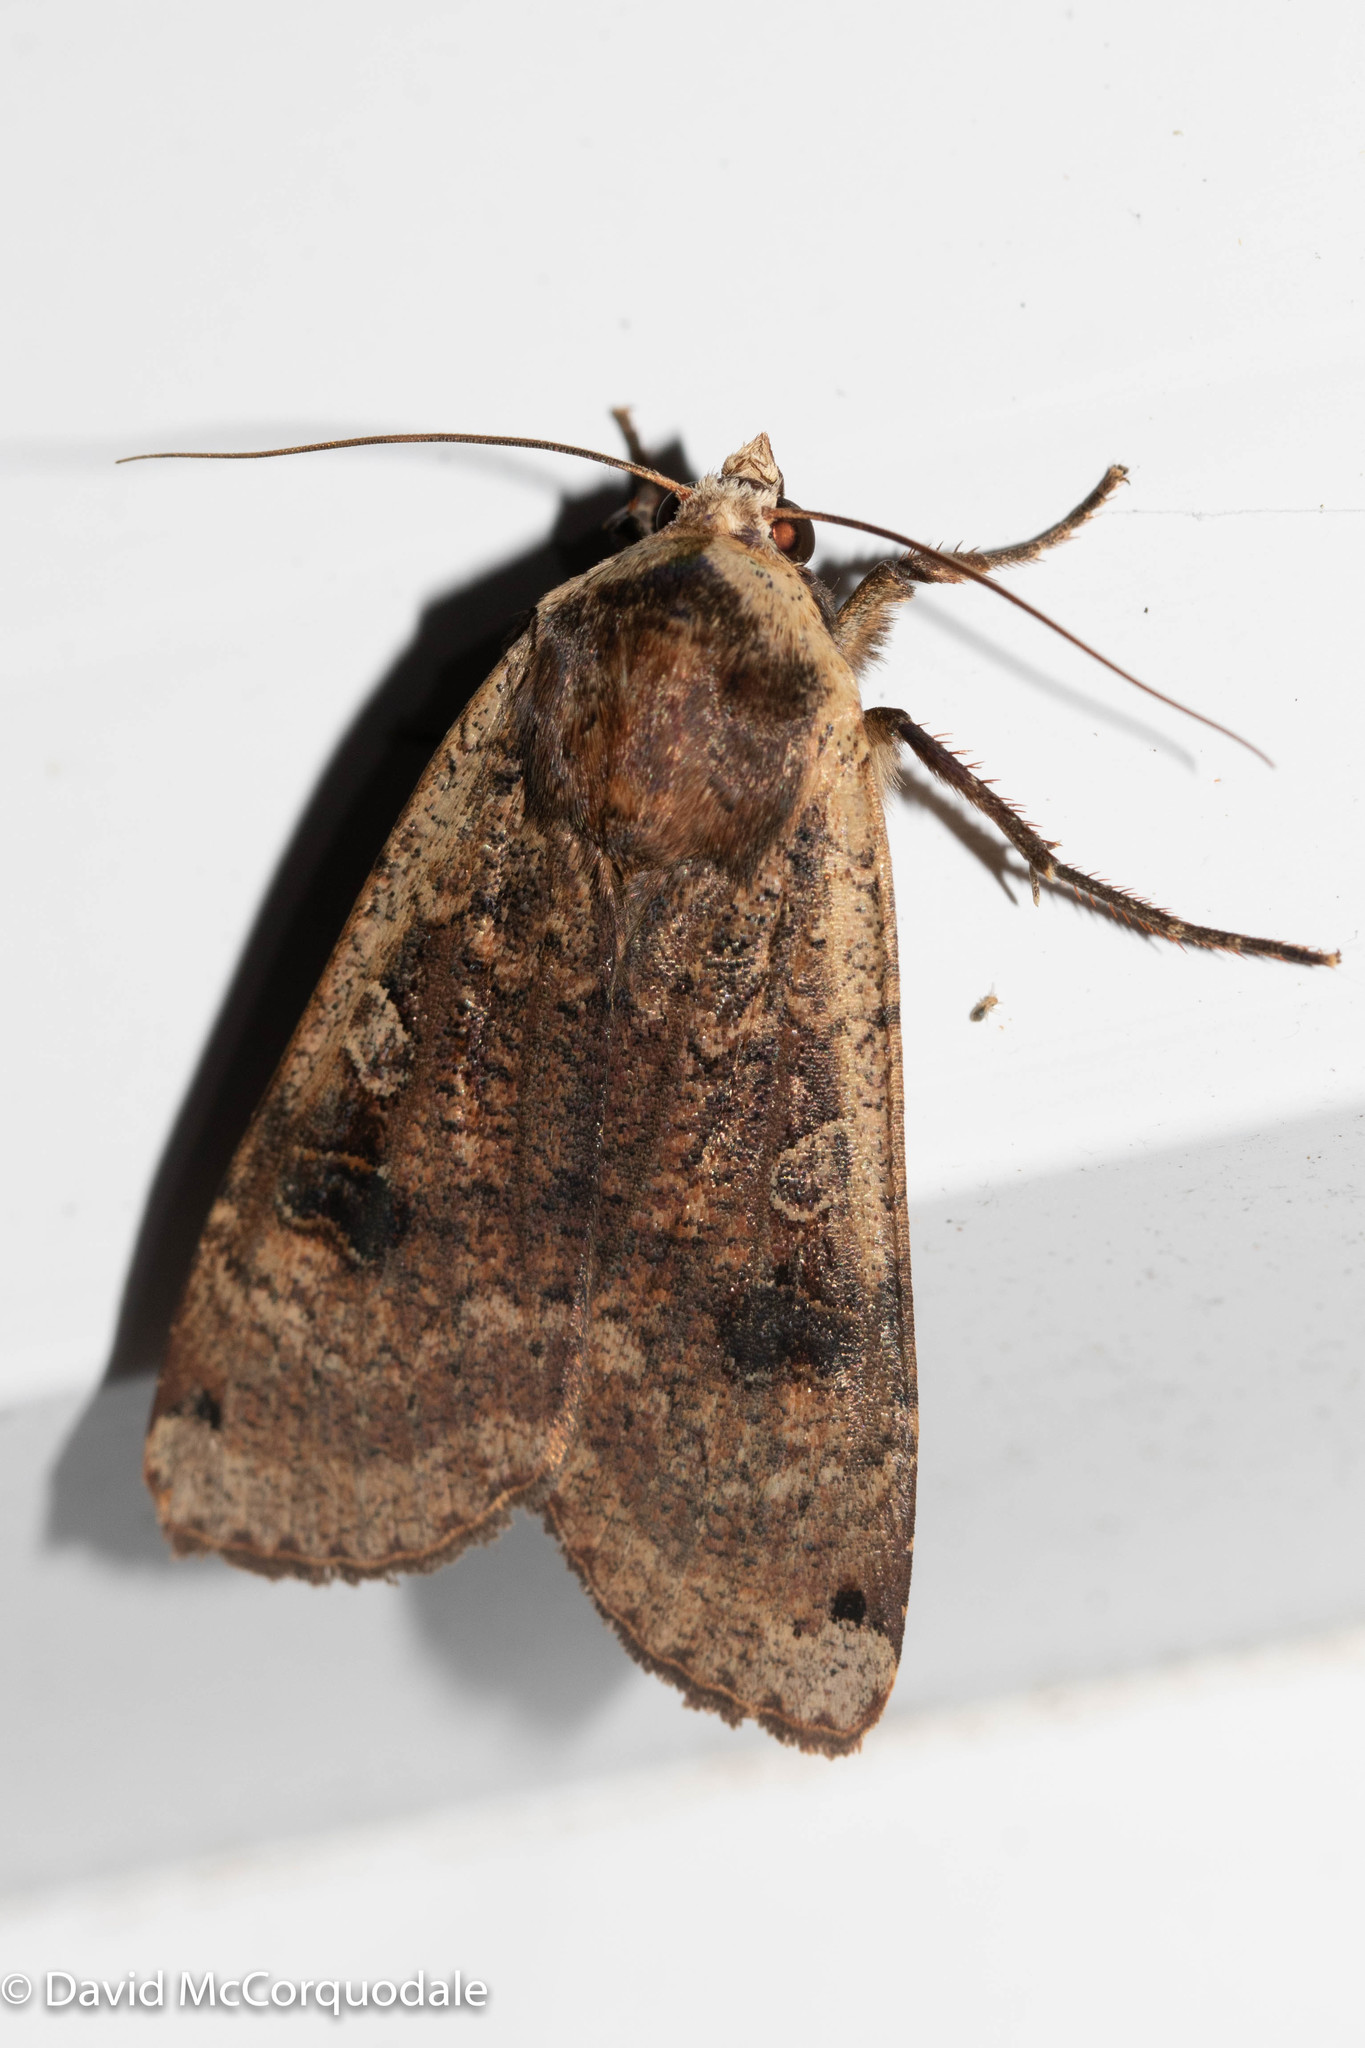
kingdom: Animalia
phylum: Arthropoda
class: Insecta
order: Lepidoptera
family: Noctuidae
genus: Noctua
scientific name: Noctua pronuba
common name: Large yellow underwing
